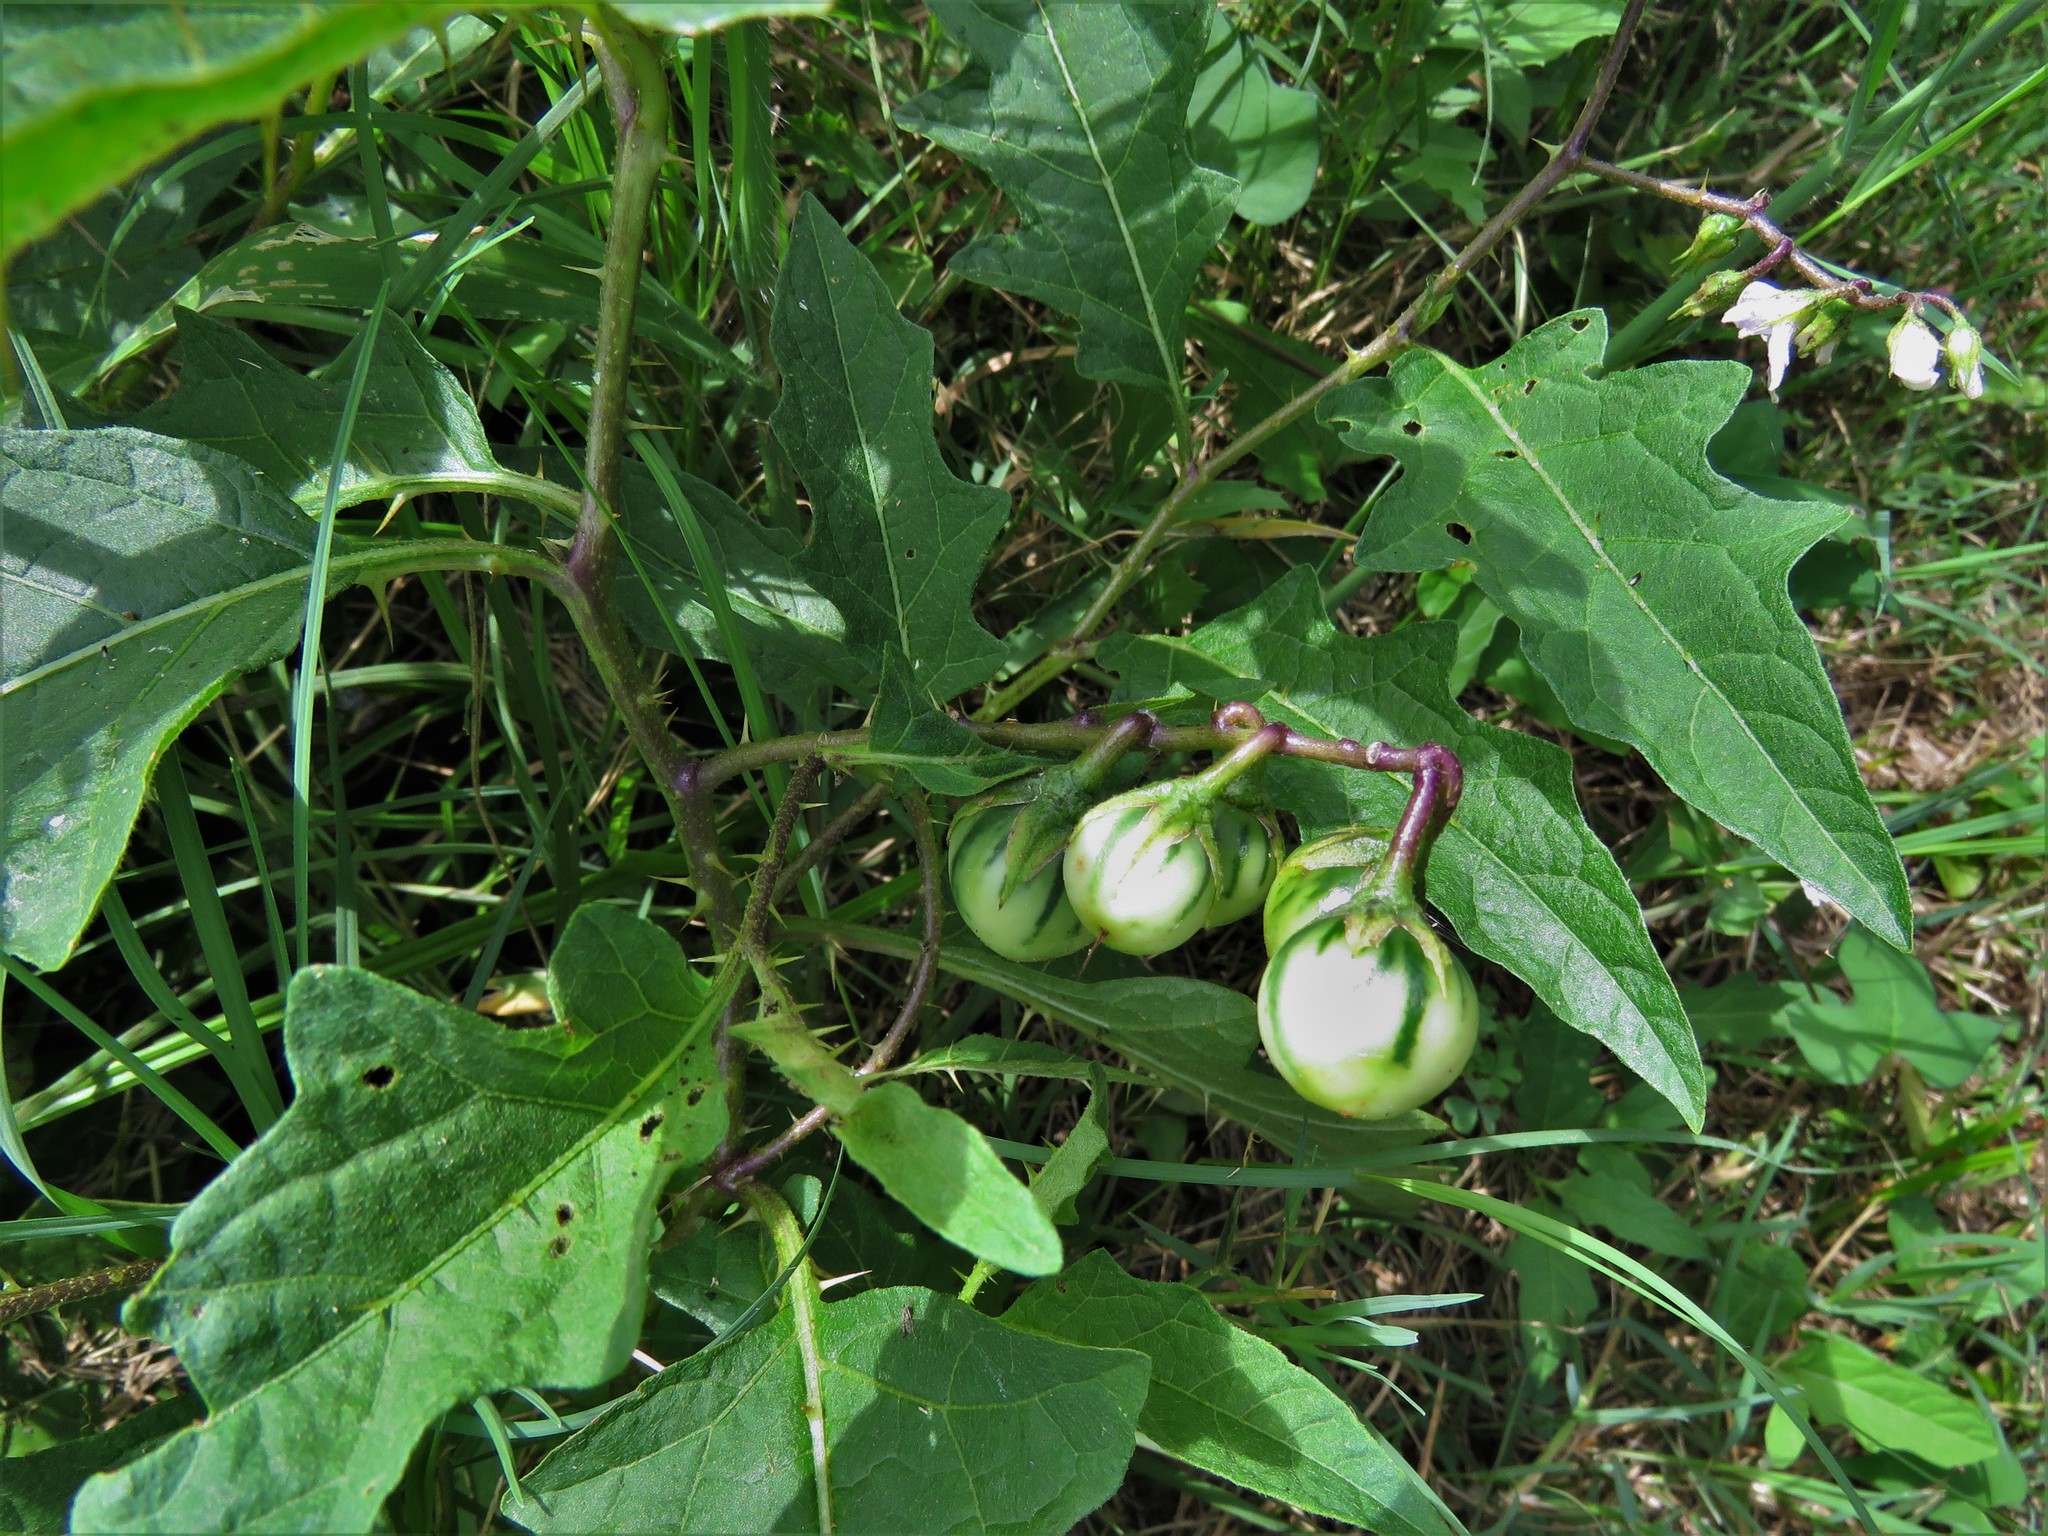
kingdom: Plantae
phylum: Tracheophyta
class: Magnoliopsida
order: Solanales
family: Solanaceae
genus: Solanum
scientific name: Solanum carolinense
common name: Horse-nettle
